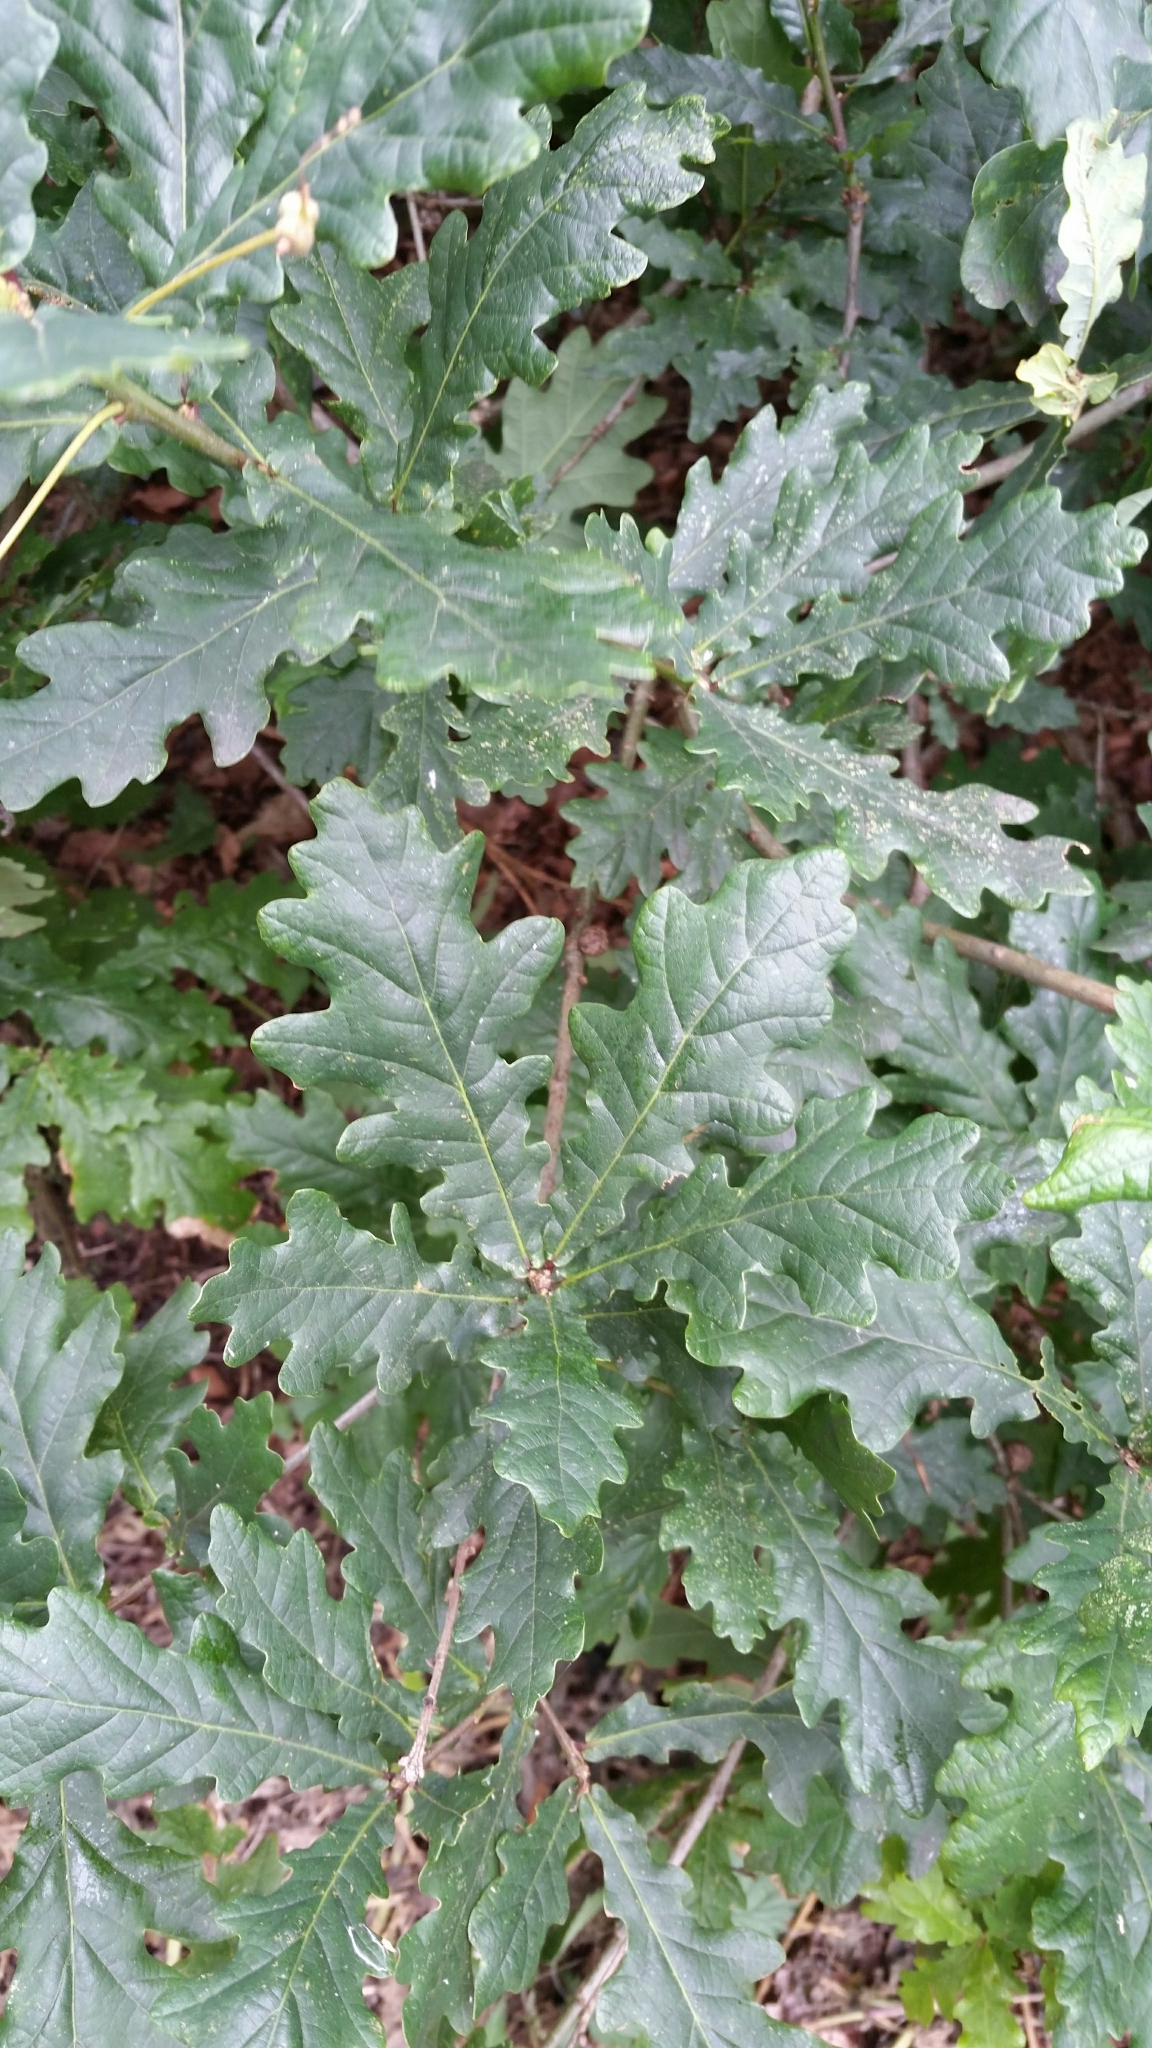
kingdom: Plantae
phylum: Tracheophyta
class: Magnoliopsida
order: Fagales
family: Fagaceae
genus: Quercus
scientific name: Quercus robur
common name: Pedunculate oak
